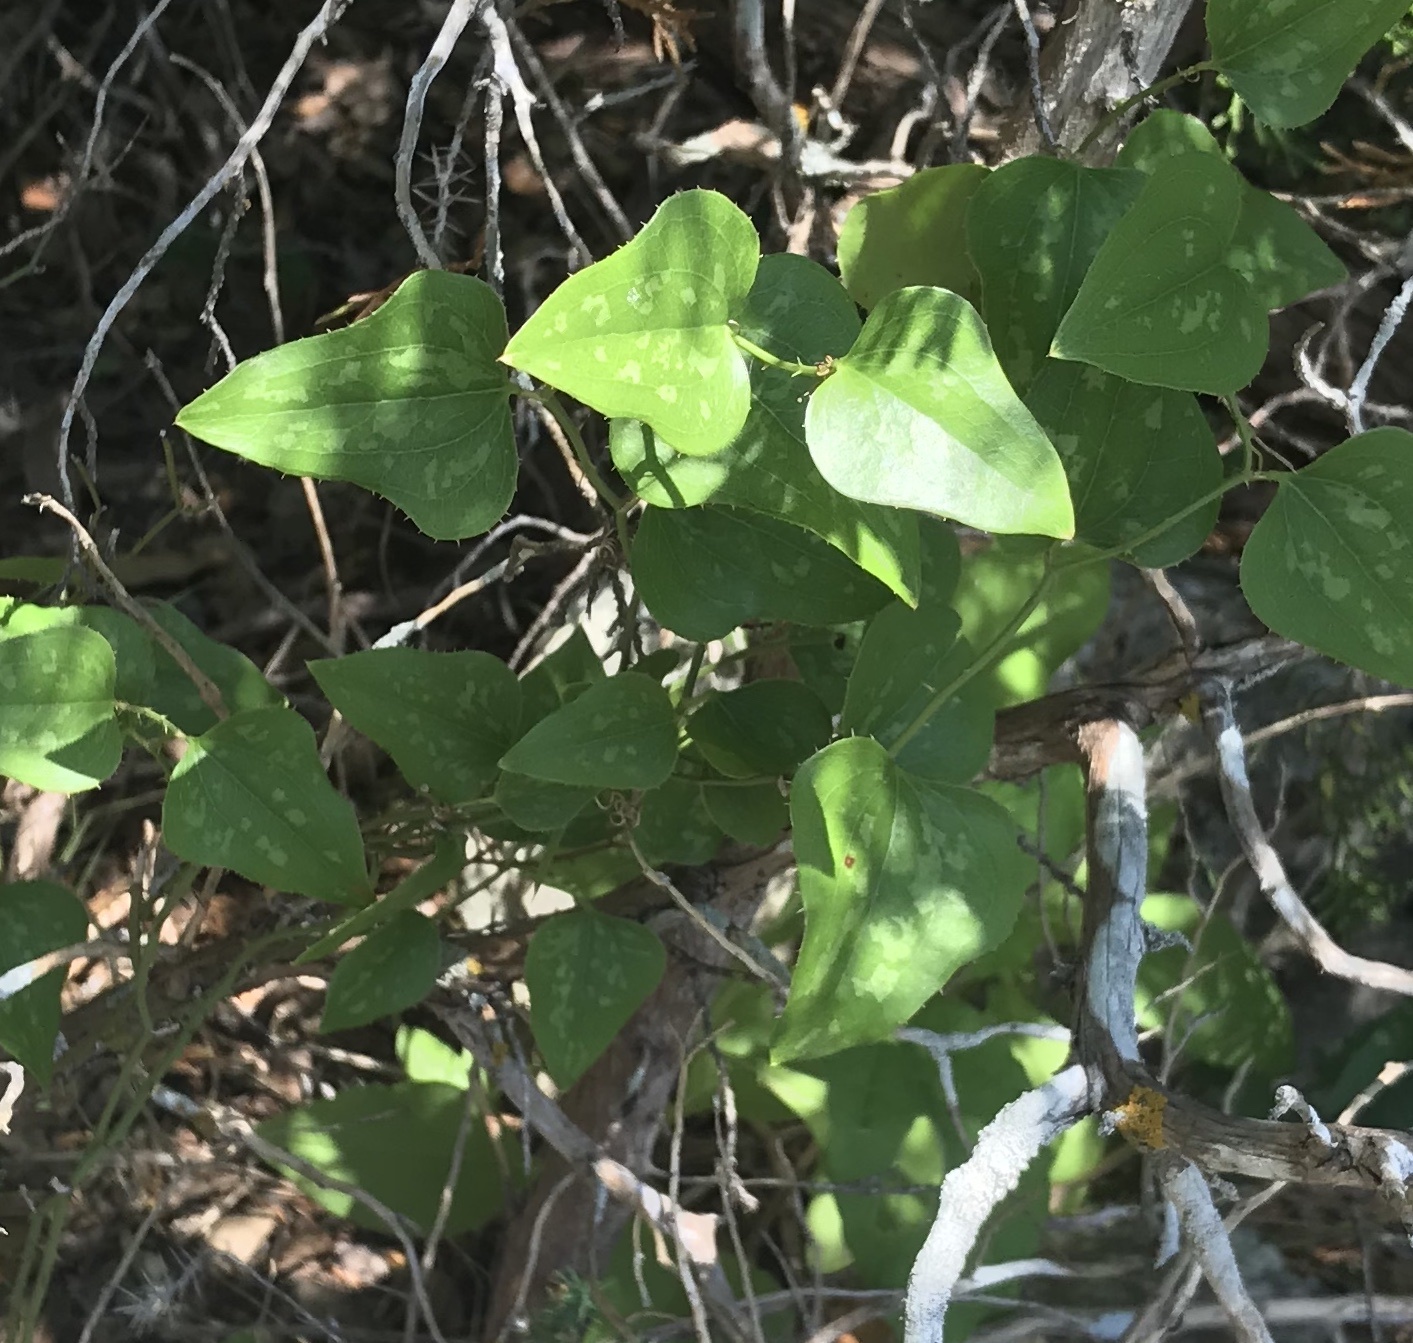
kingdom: Plantae
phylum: Tracheophyta
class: Liliopsida
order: Liliales
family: Smilacaceae
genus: Smilax
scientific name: Smilax bona-nox
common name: Catbrier
